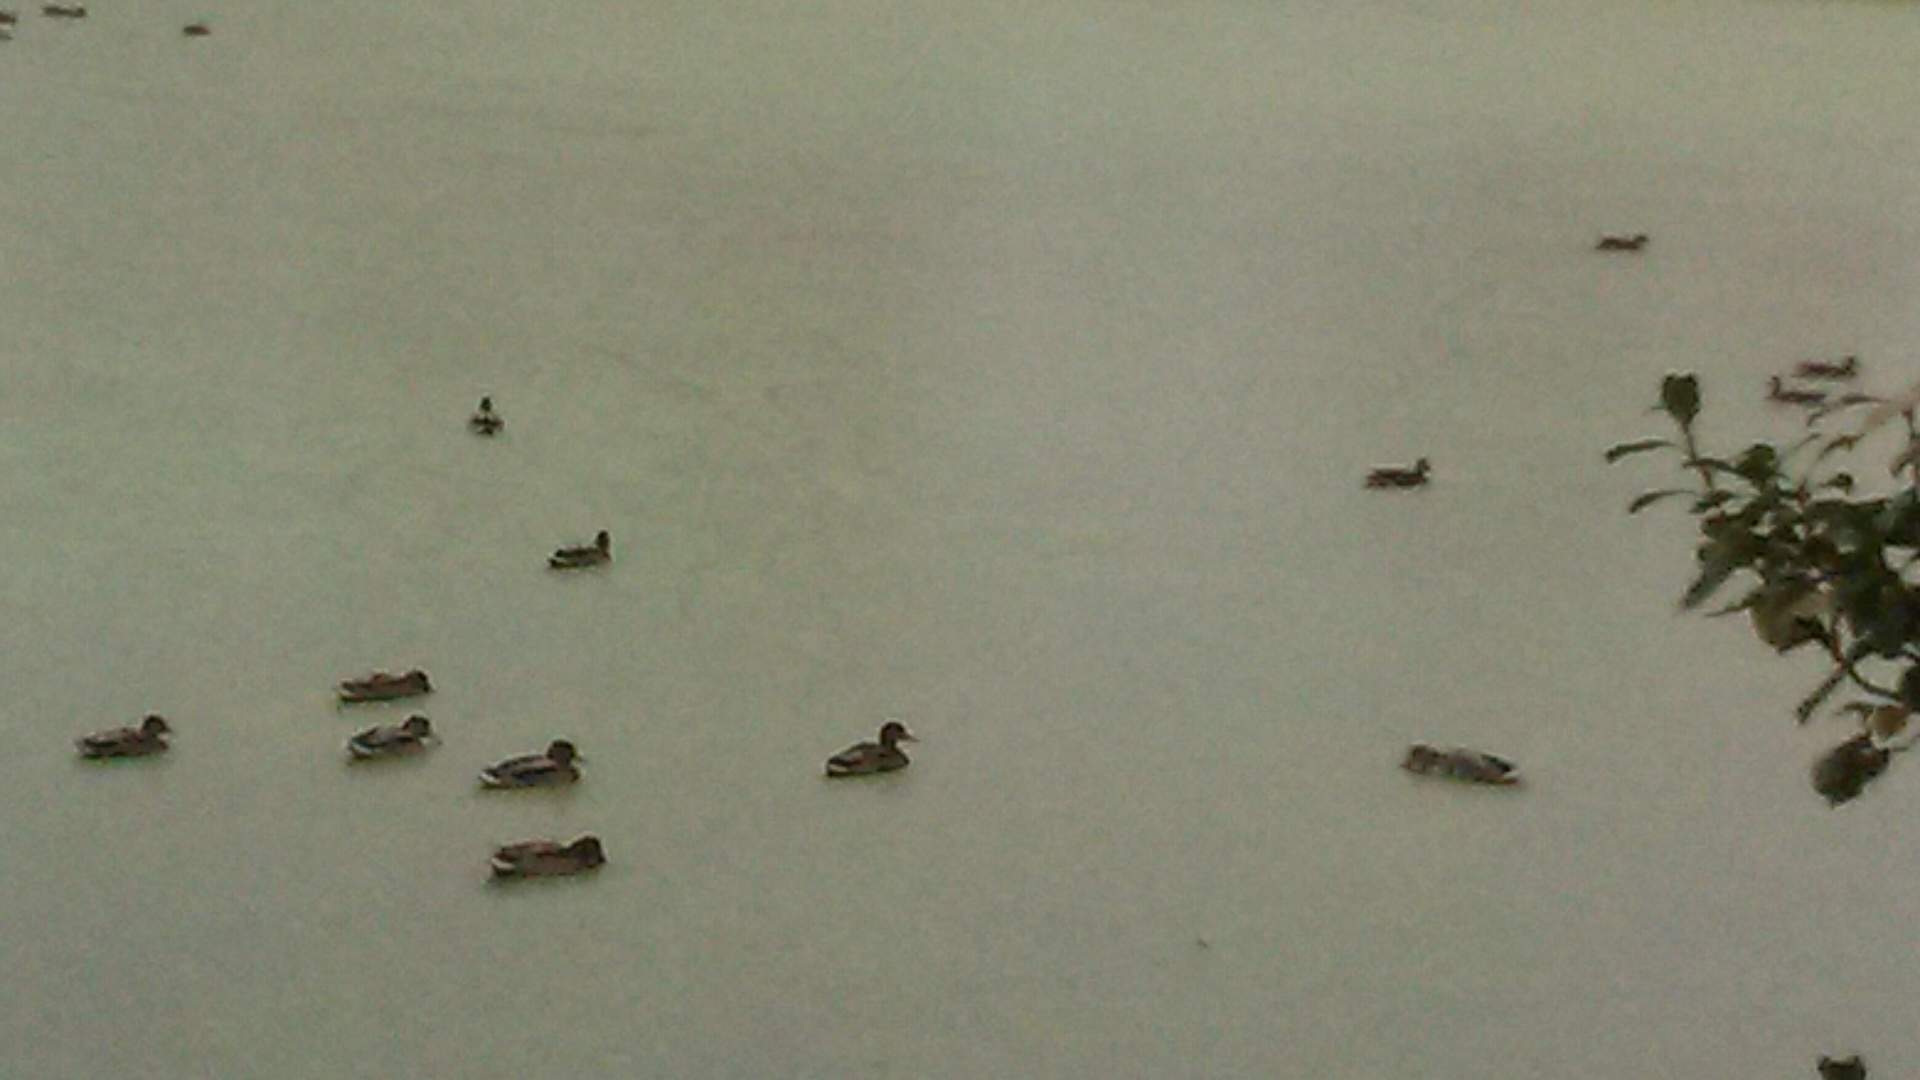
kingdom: Animalia
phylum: Chordata
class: Aves
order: Anseriformes
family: Anatidae
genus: Anas
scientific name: Anas platyrhynchos
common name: Mallard
